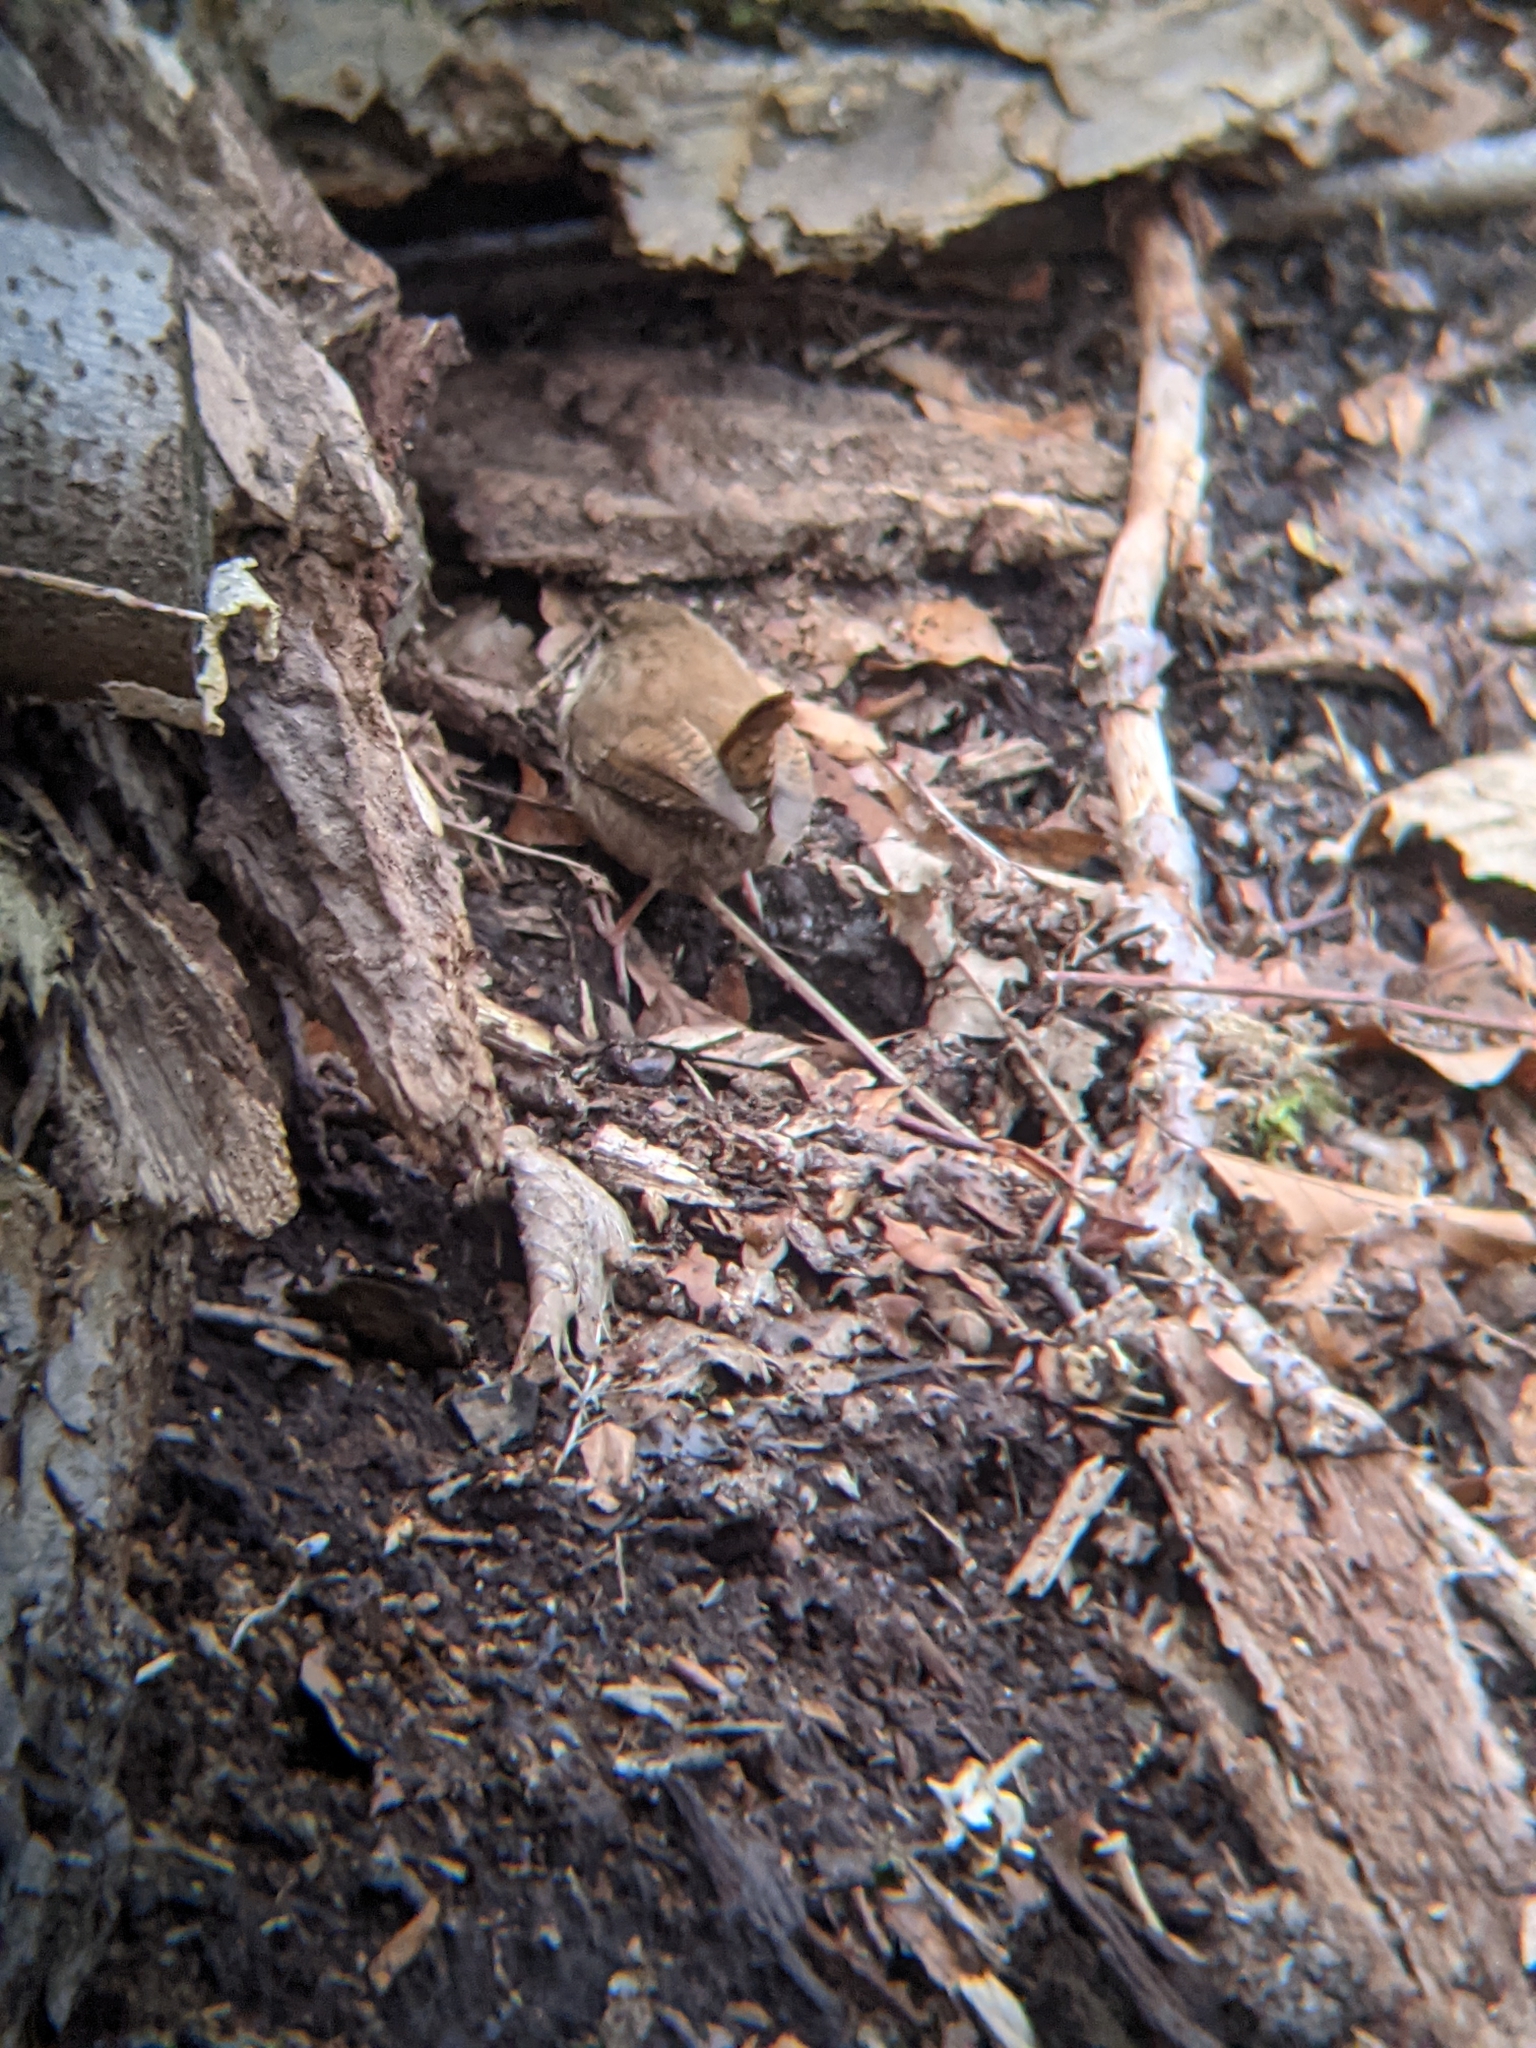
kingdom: Animalia
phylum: Chordata
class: Aves
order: Passeriformes
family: Troglodytidae
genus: Troglodytes
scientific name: Troglodytes troglodytes
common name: Eurasian wren
